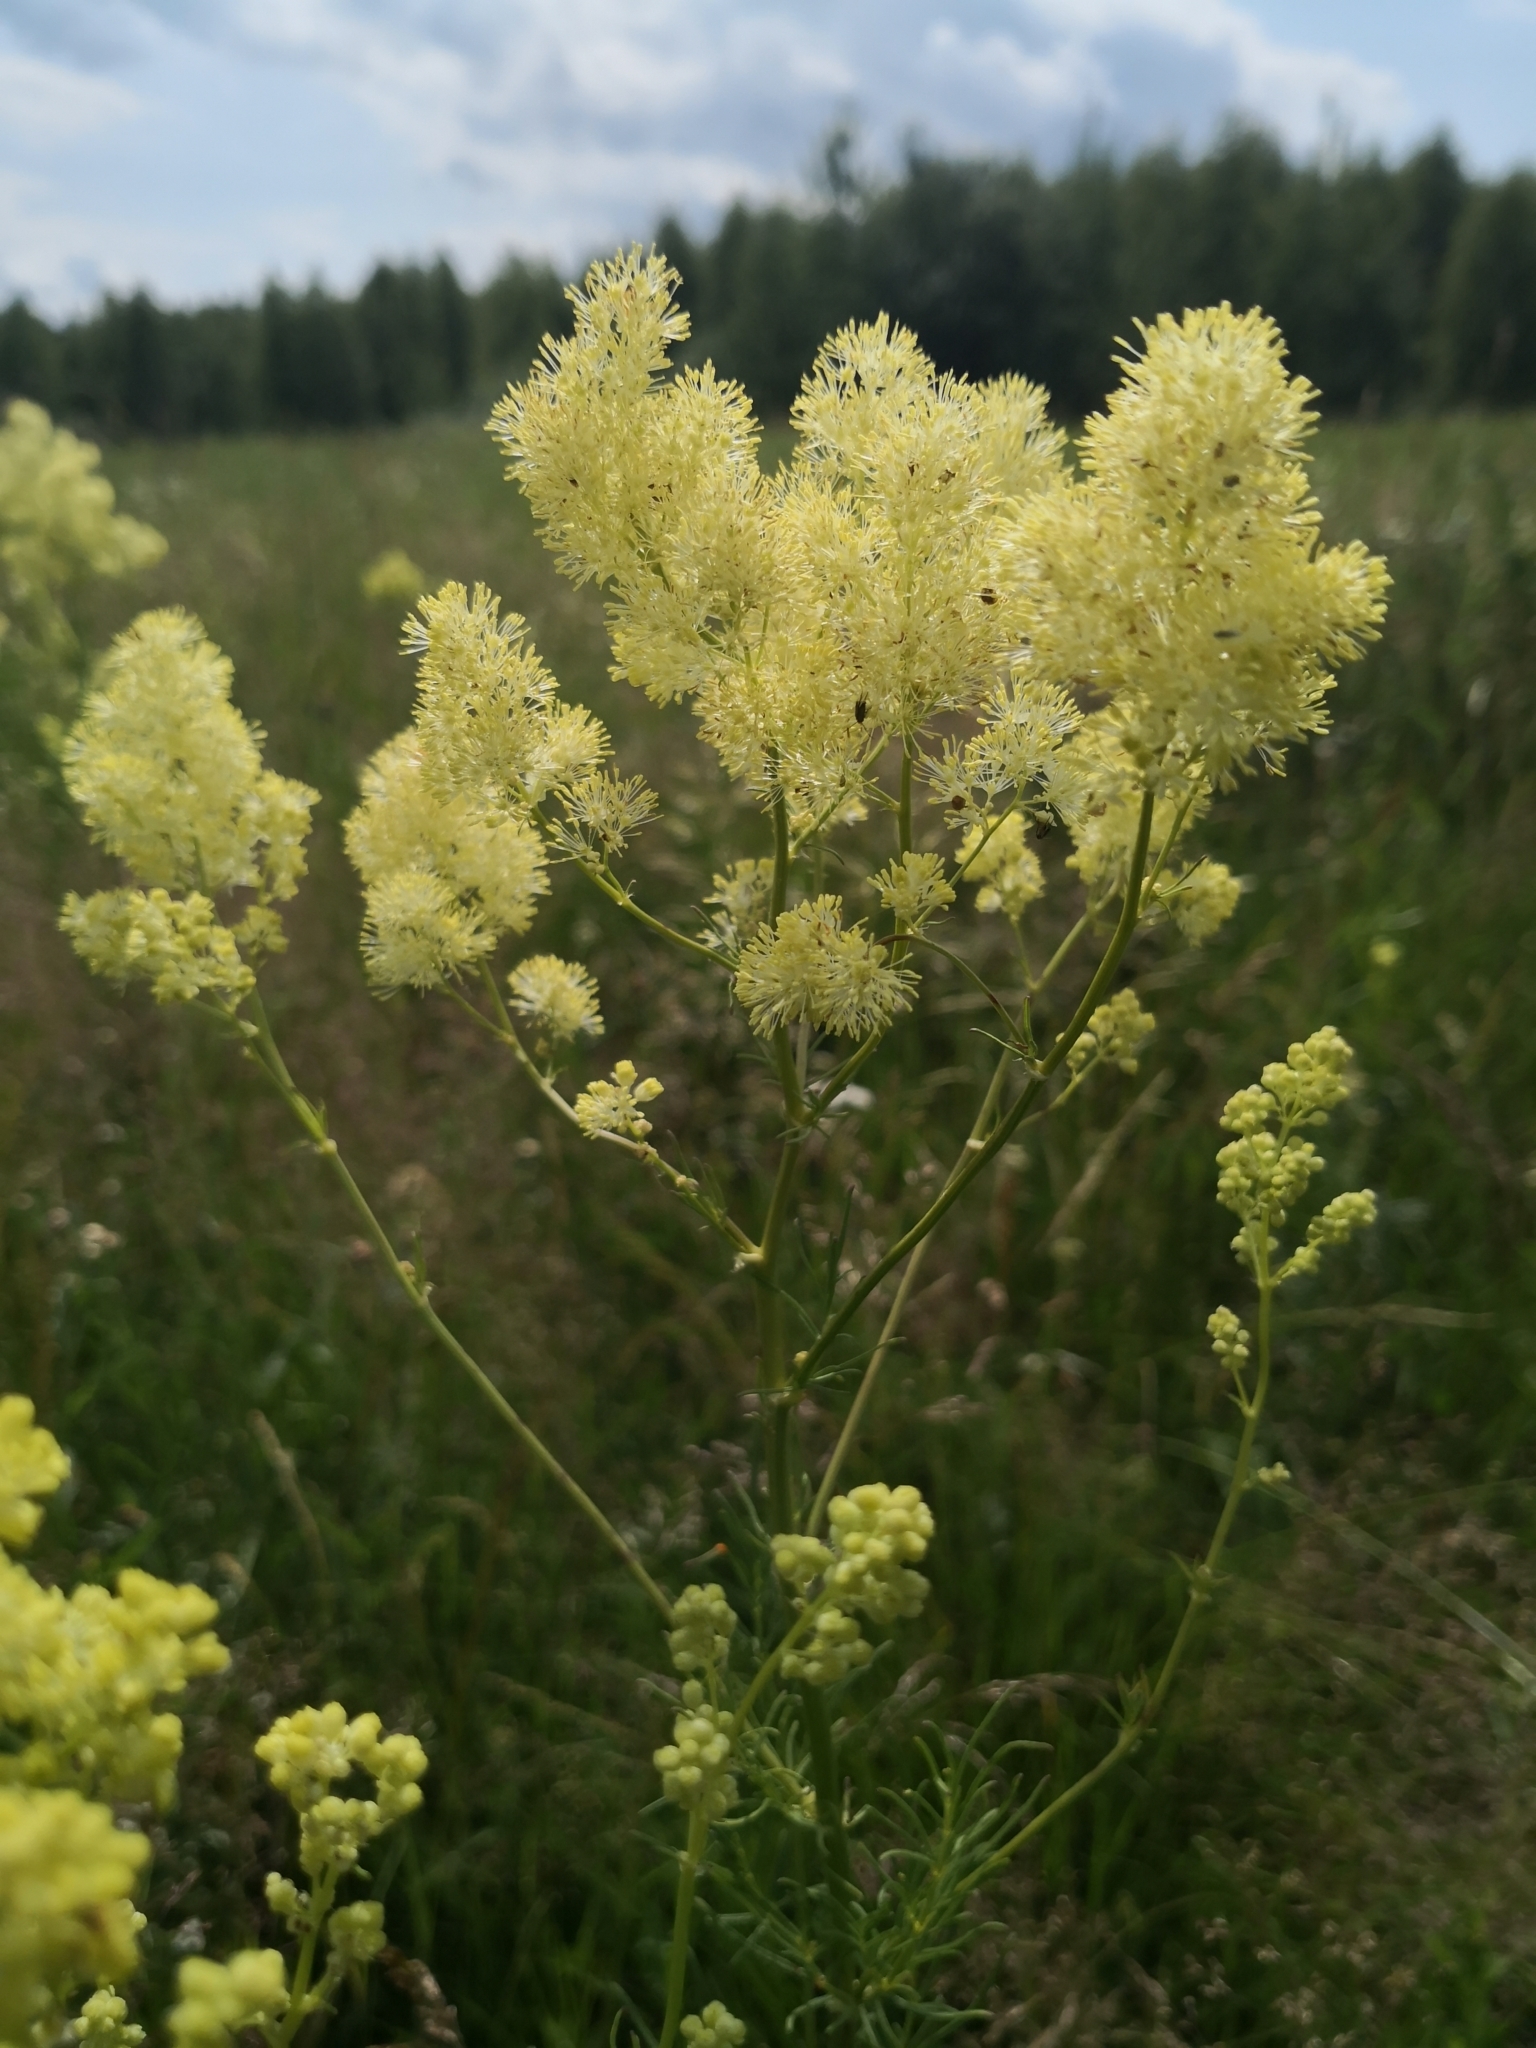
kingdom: Plantae
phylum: Tracheophyta
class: Magnoliopsida
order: Ranunculales
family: Ranunculaceae
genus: Thalictrum
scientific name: Thalictrum lucidum
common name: Shining meadow-rue
